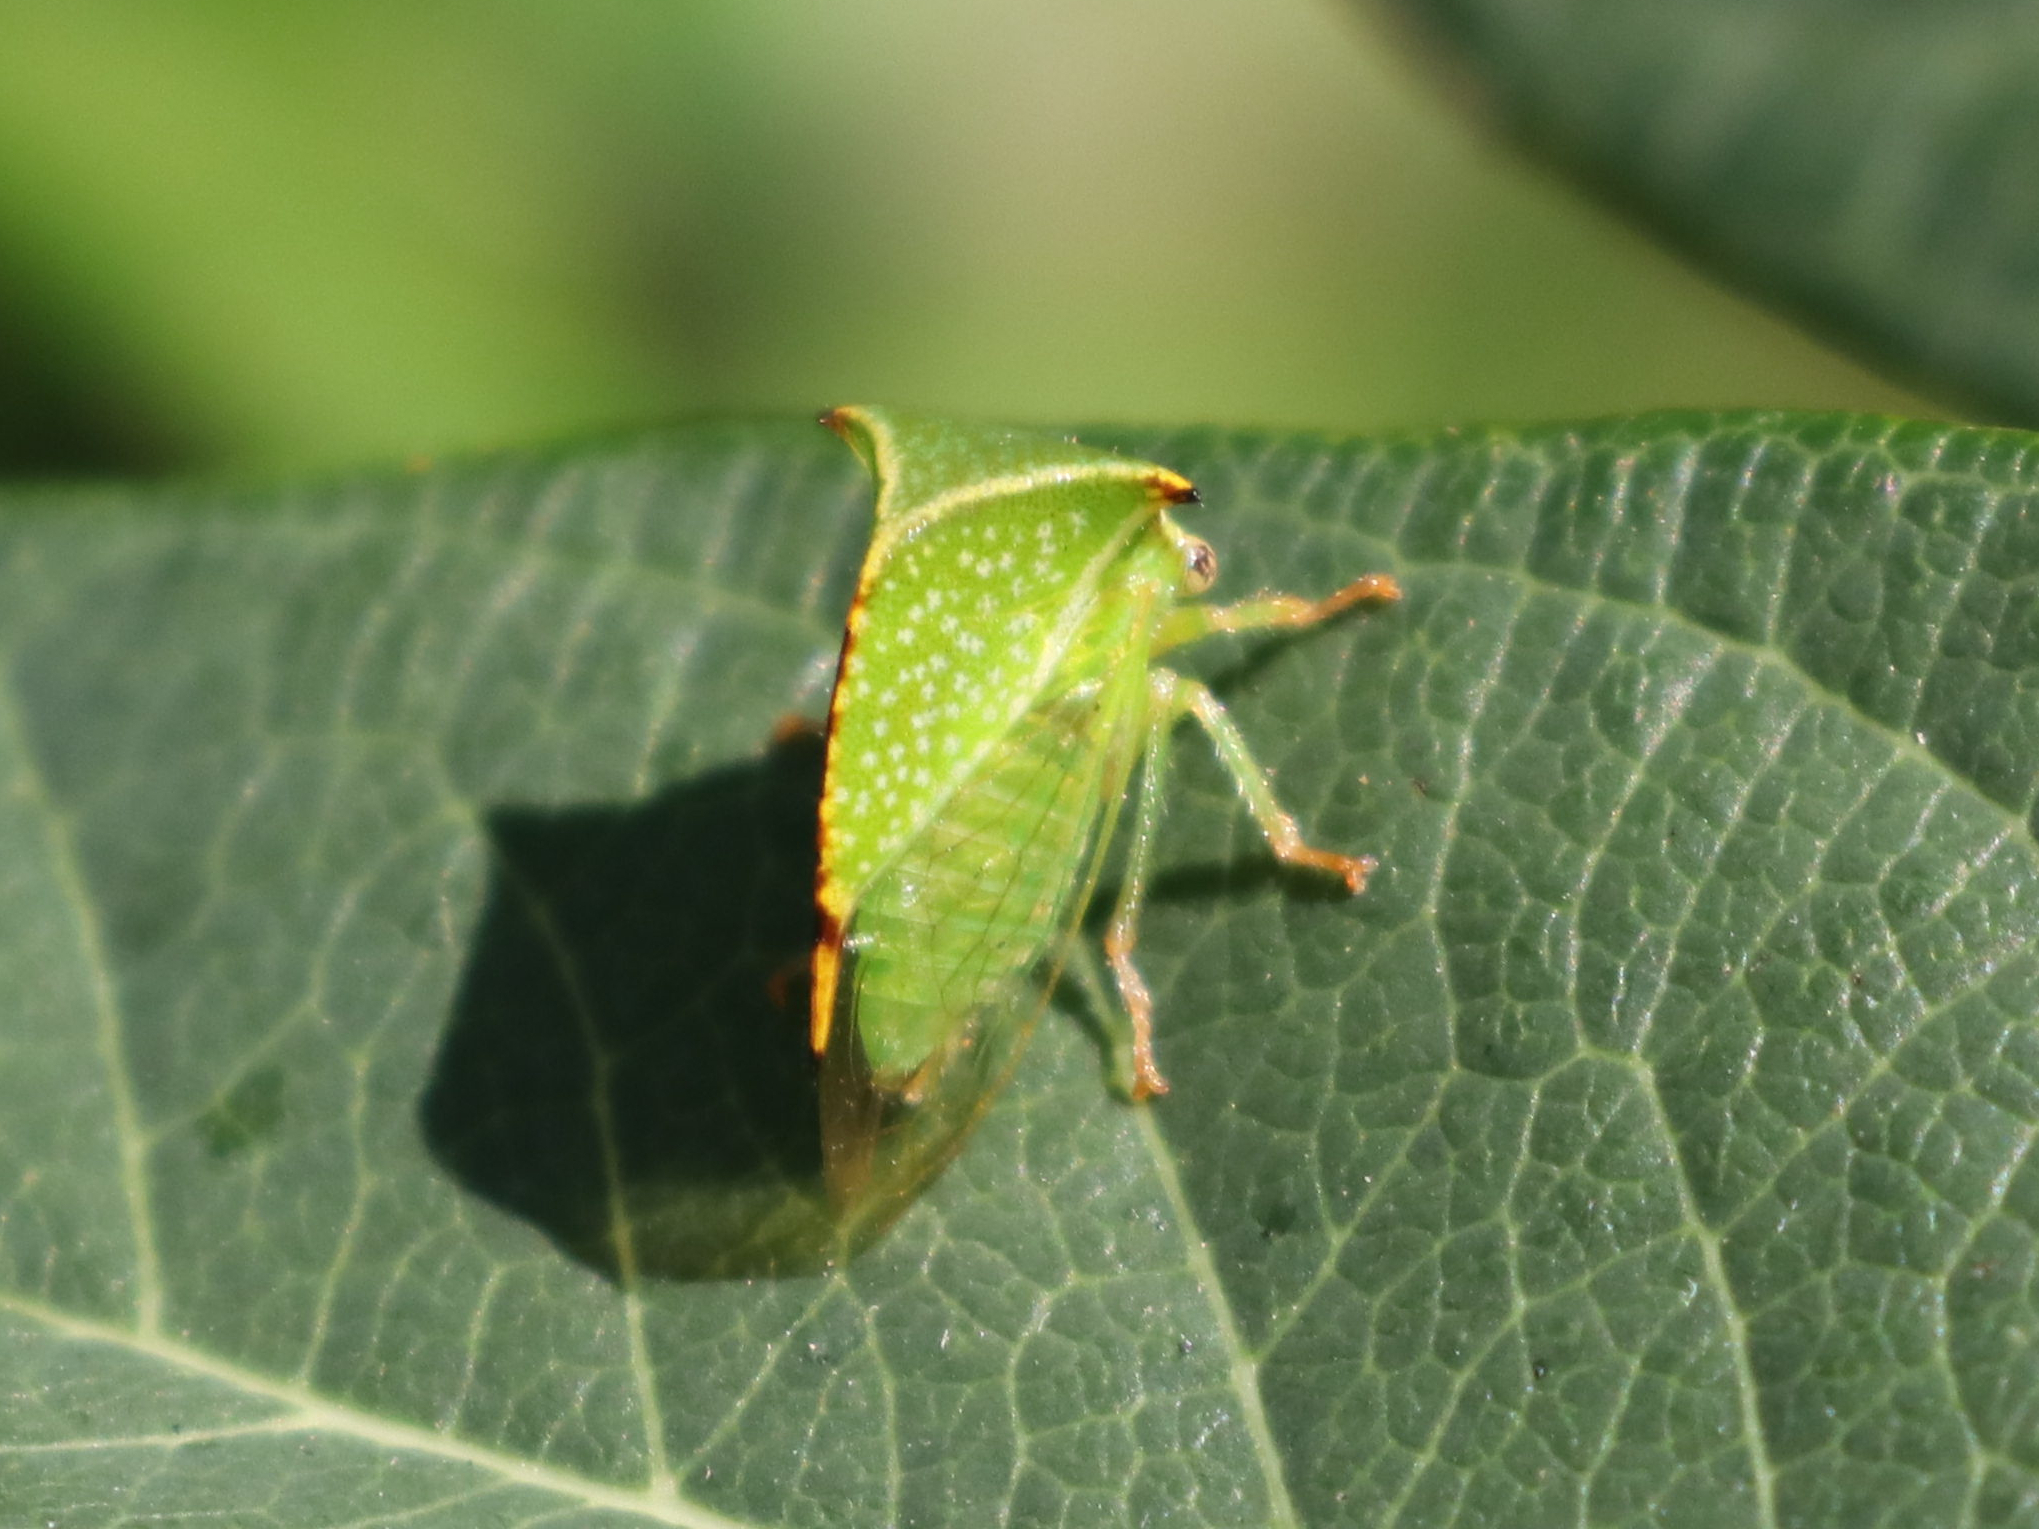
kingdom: Animalia
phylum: Arthropoda
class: Insecta
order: Hemiptera
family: Membracidae
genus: Stictocephala
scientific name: Stictocephala bisonia
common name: American buffalo treehopper
